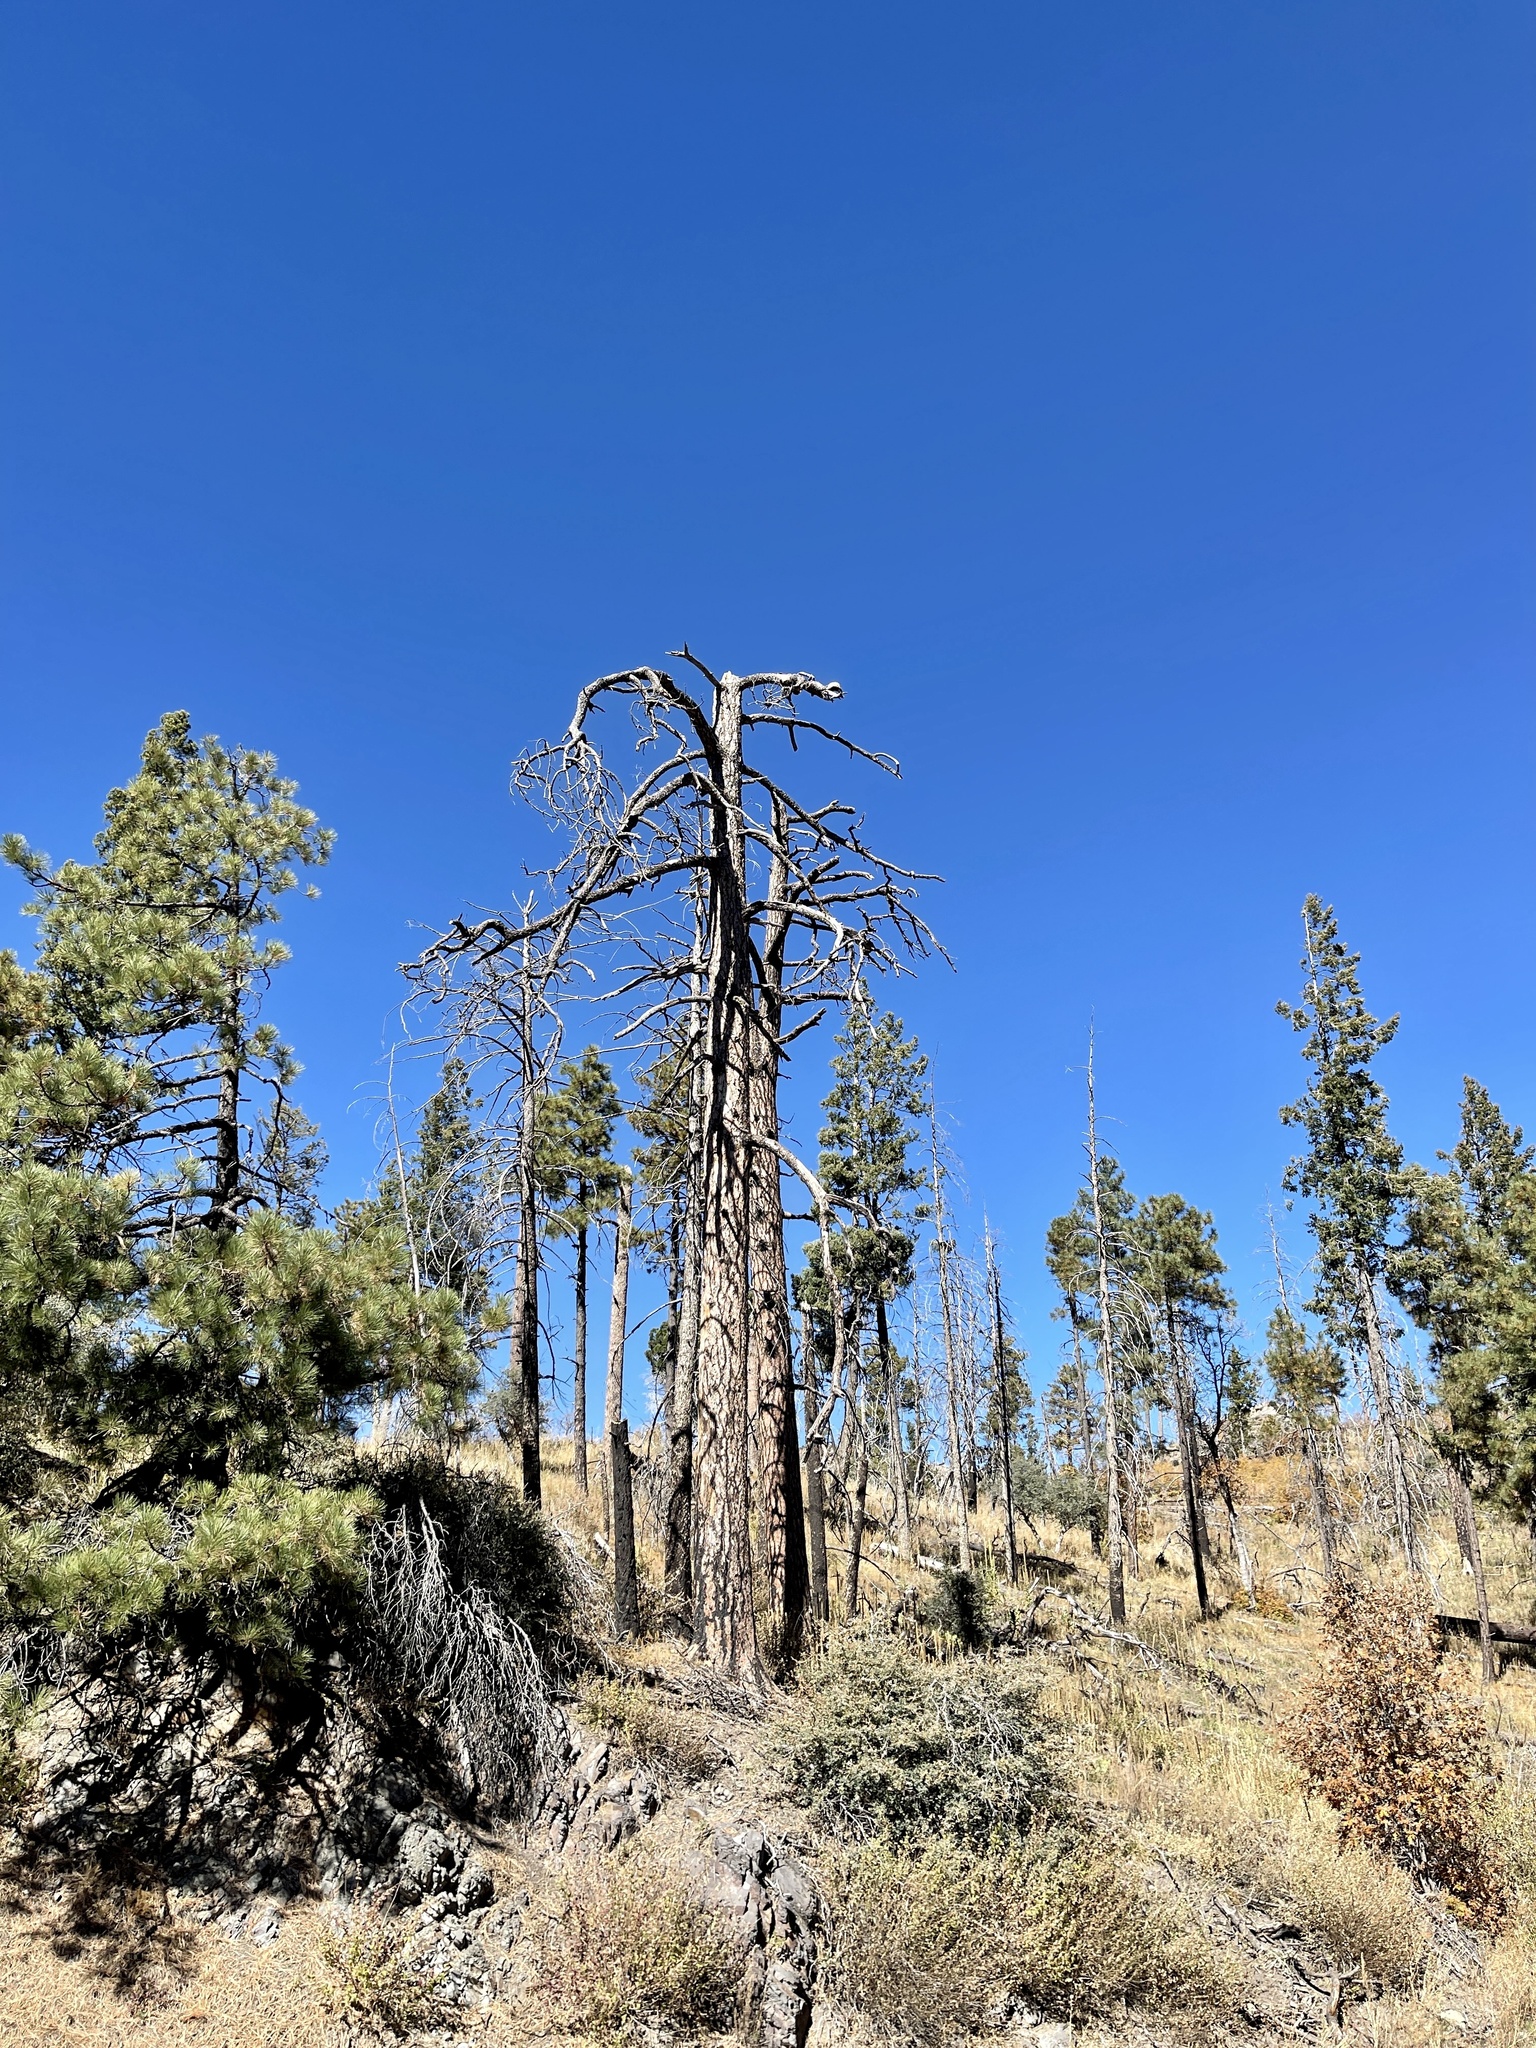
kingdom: Plantae
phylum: Tracheophyta
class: Pinopsida
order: Pinales
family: Pinaceae
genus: Pinus
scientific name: Pinus ponderosa
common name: Western yellow-pine
